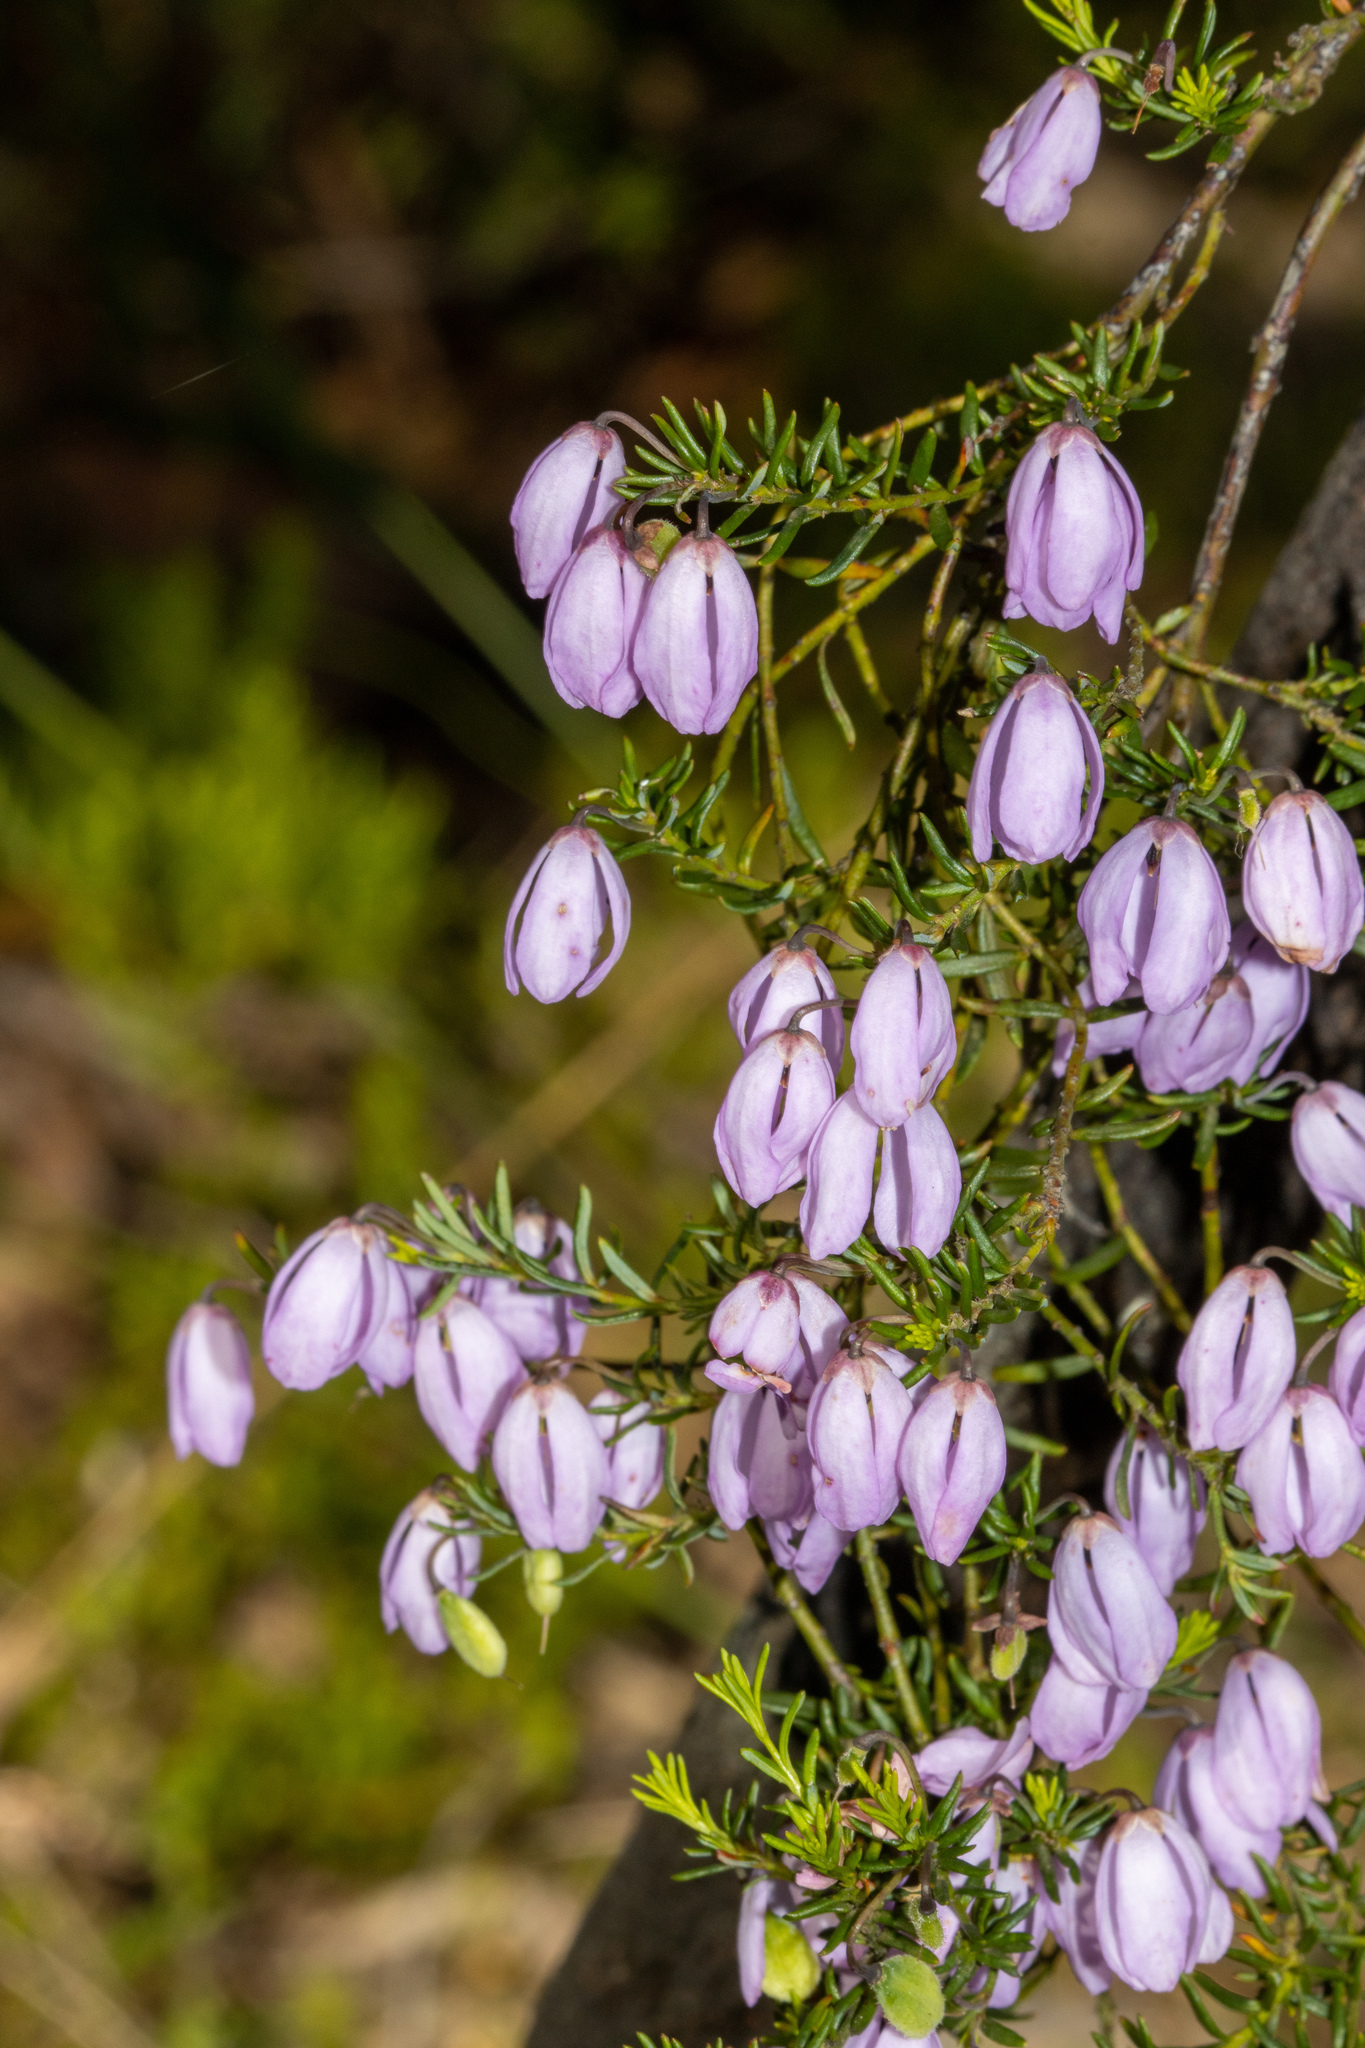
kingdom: Plantae
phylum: Tracheophyta
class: Magnoliopsida
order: Oxalidales
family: Elaeocarpaceae
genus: Tetratheca
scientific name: Tetratheca pilosa
